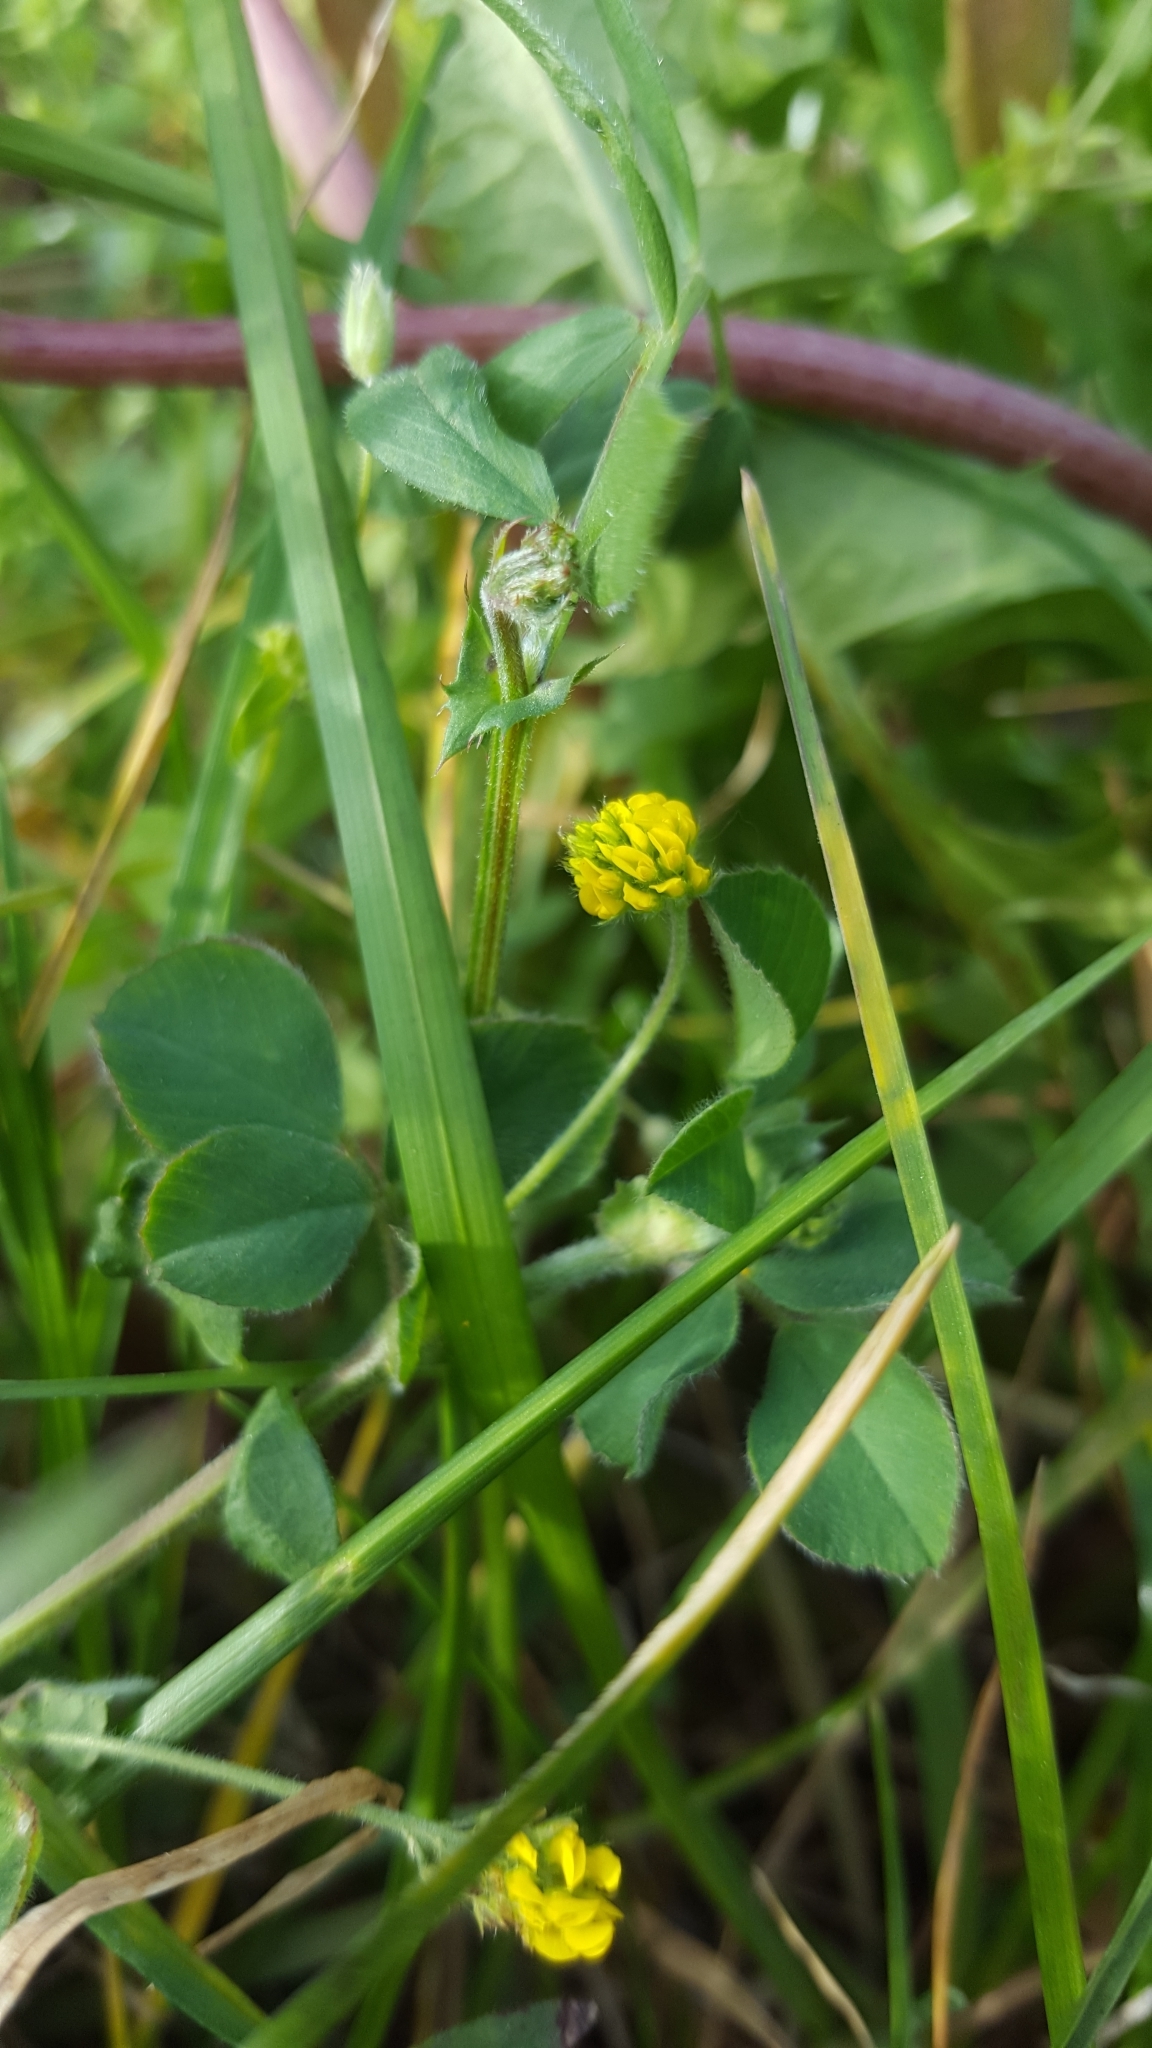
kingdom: Plantae
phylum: Tracheophyta
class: Magnoliopsida
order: Fabales
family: Fabaceae
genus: Medicago
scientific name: Medicago lupulina
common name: Black medick
